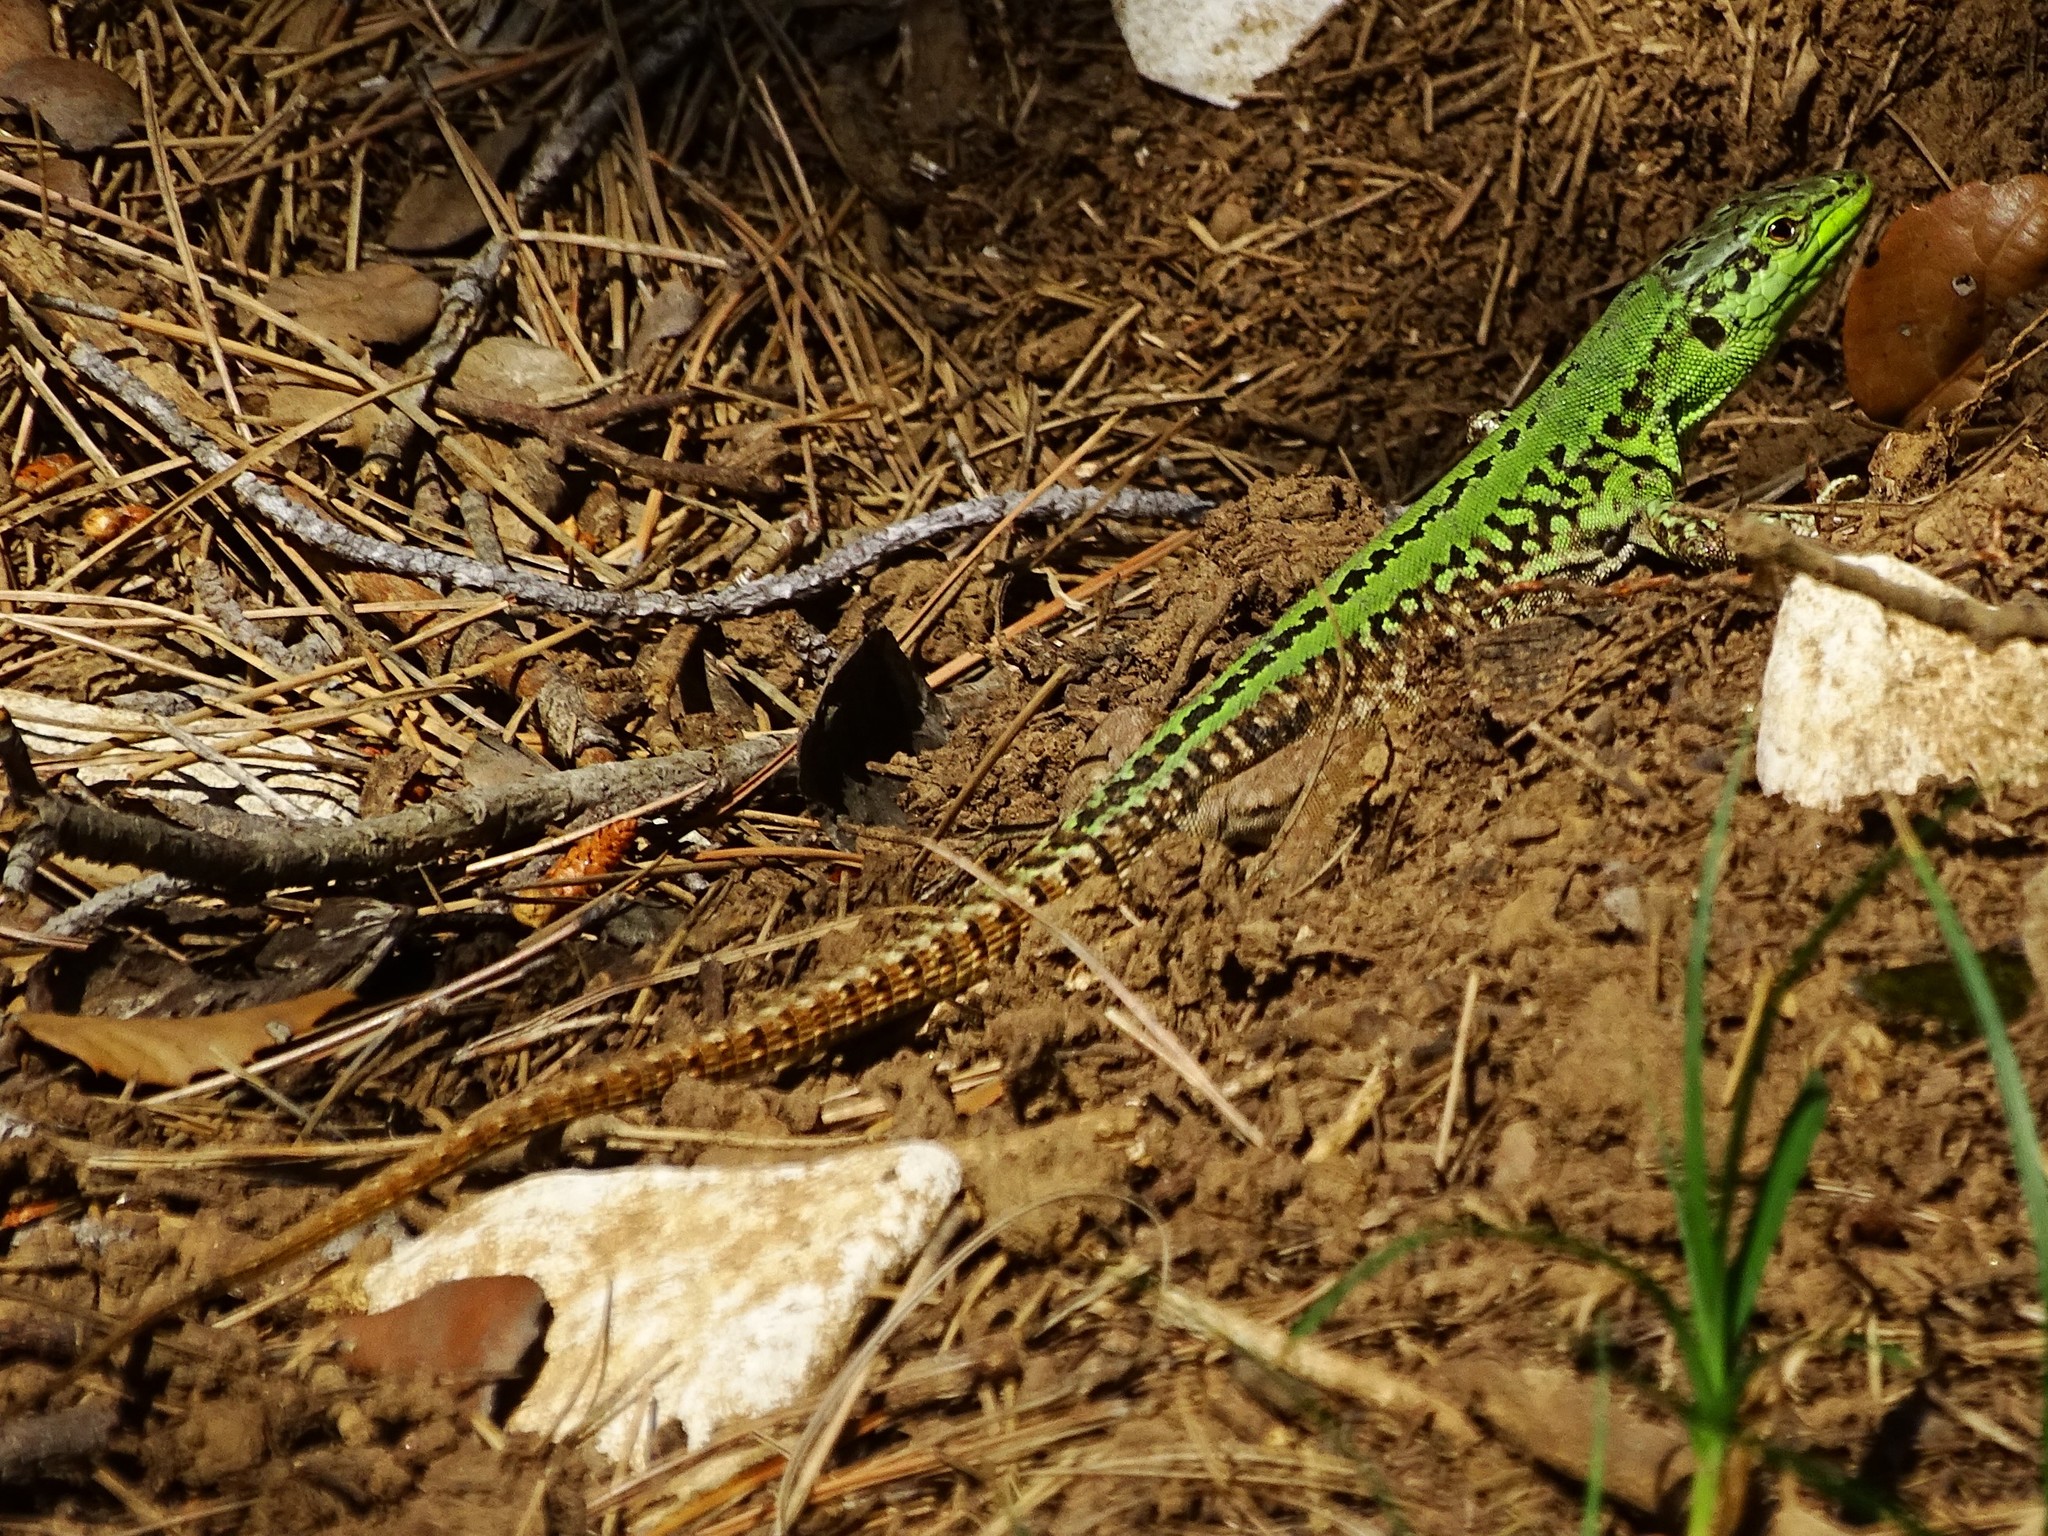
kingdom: Animalia
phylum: Chordata
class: Squamata
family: Lacertidae
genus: Podarcis
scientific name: Podarcis siculus
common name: Italian wall lizard
